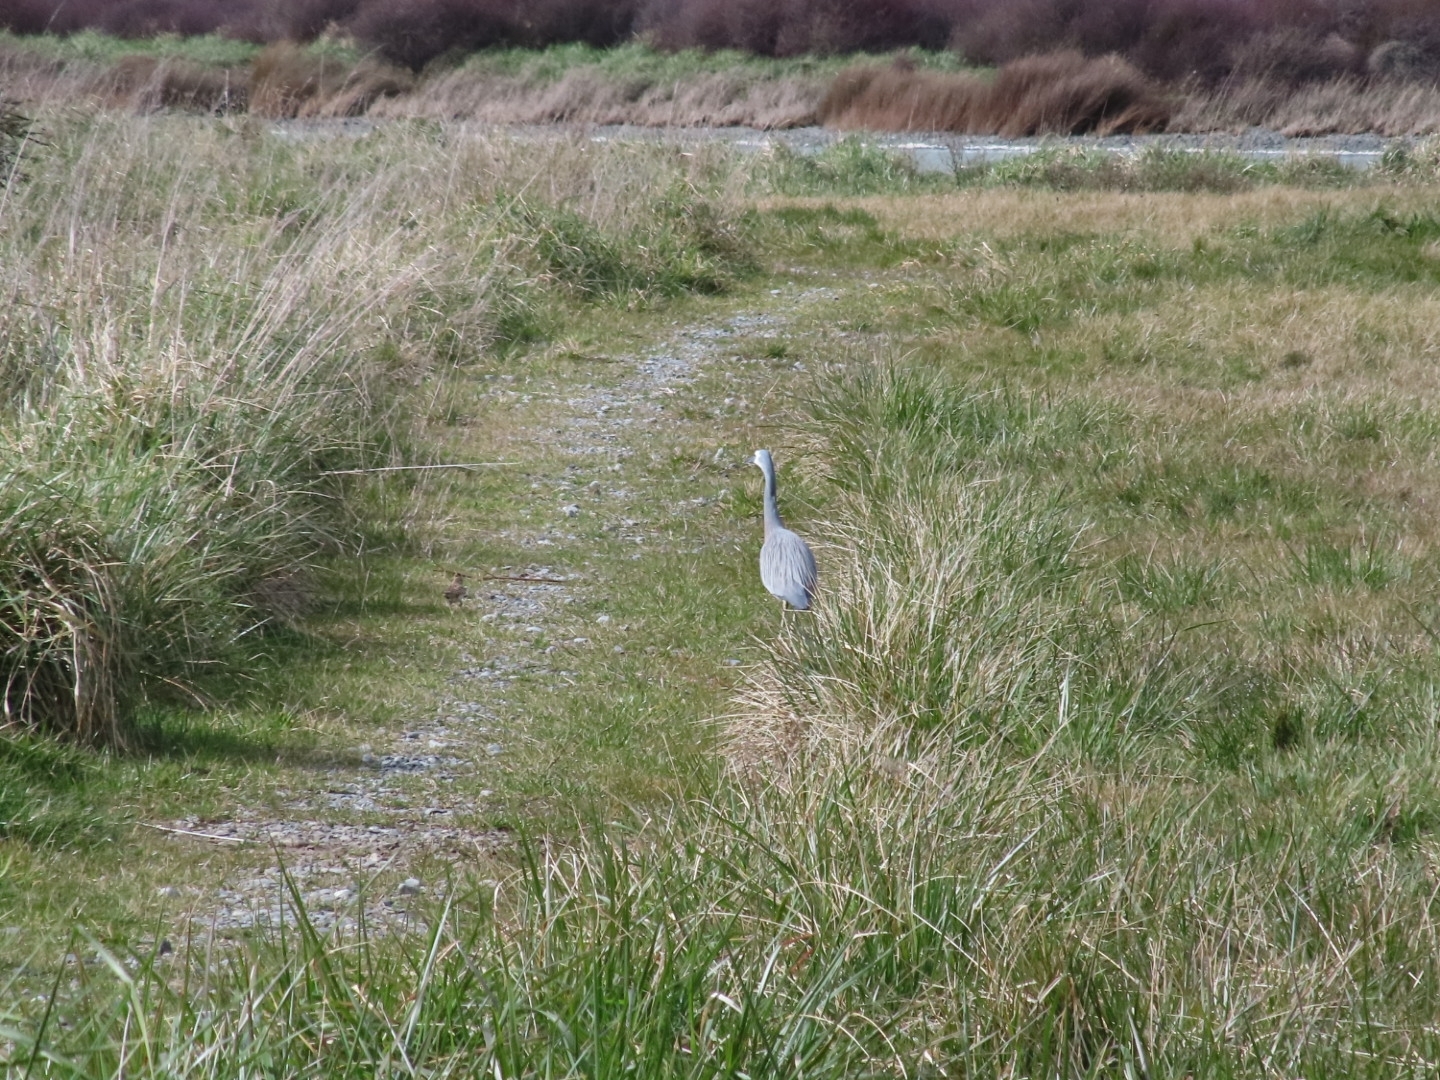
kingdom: Animalia
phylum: Chordata
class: Aves
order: Pelecaniformes
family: Ardeidae
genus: Egretta
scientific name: Egretta novaehollandiae
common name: White-faced heron
